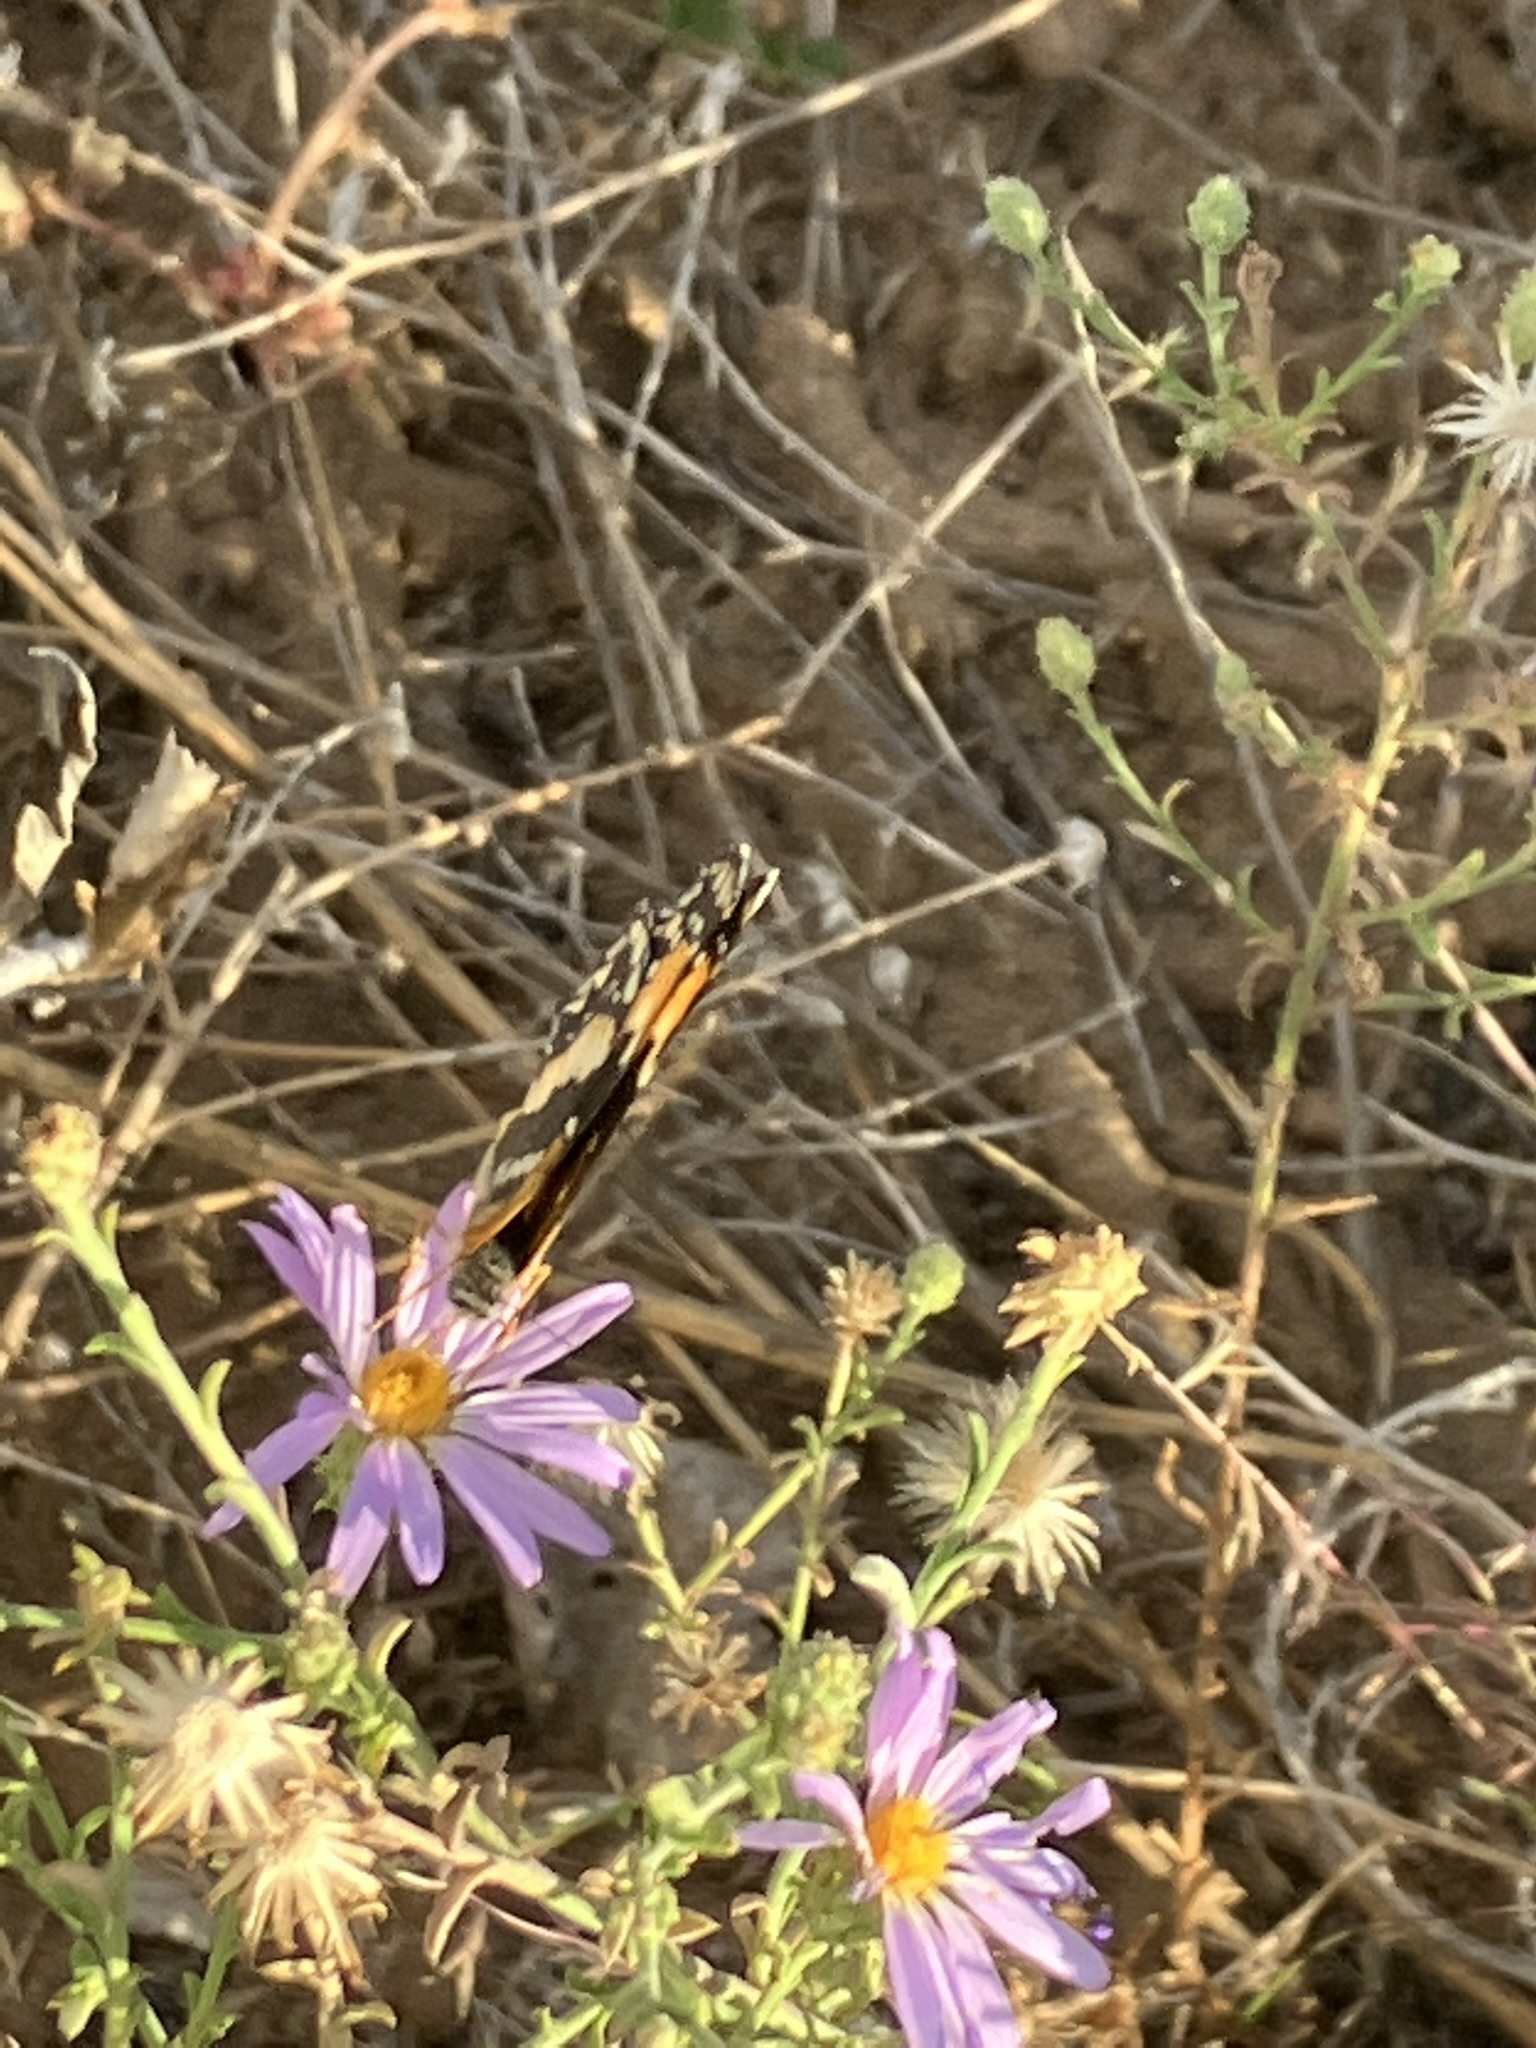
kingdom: Animalia
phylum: Arthropoda
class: Insecta
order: Lepidoptera
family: Nymphalidae
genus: Chlosyne
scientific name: Chlosyne californica
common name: California patch
